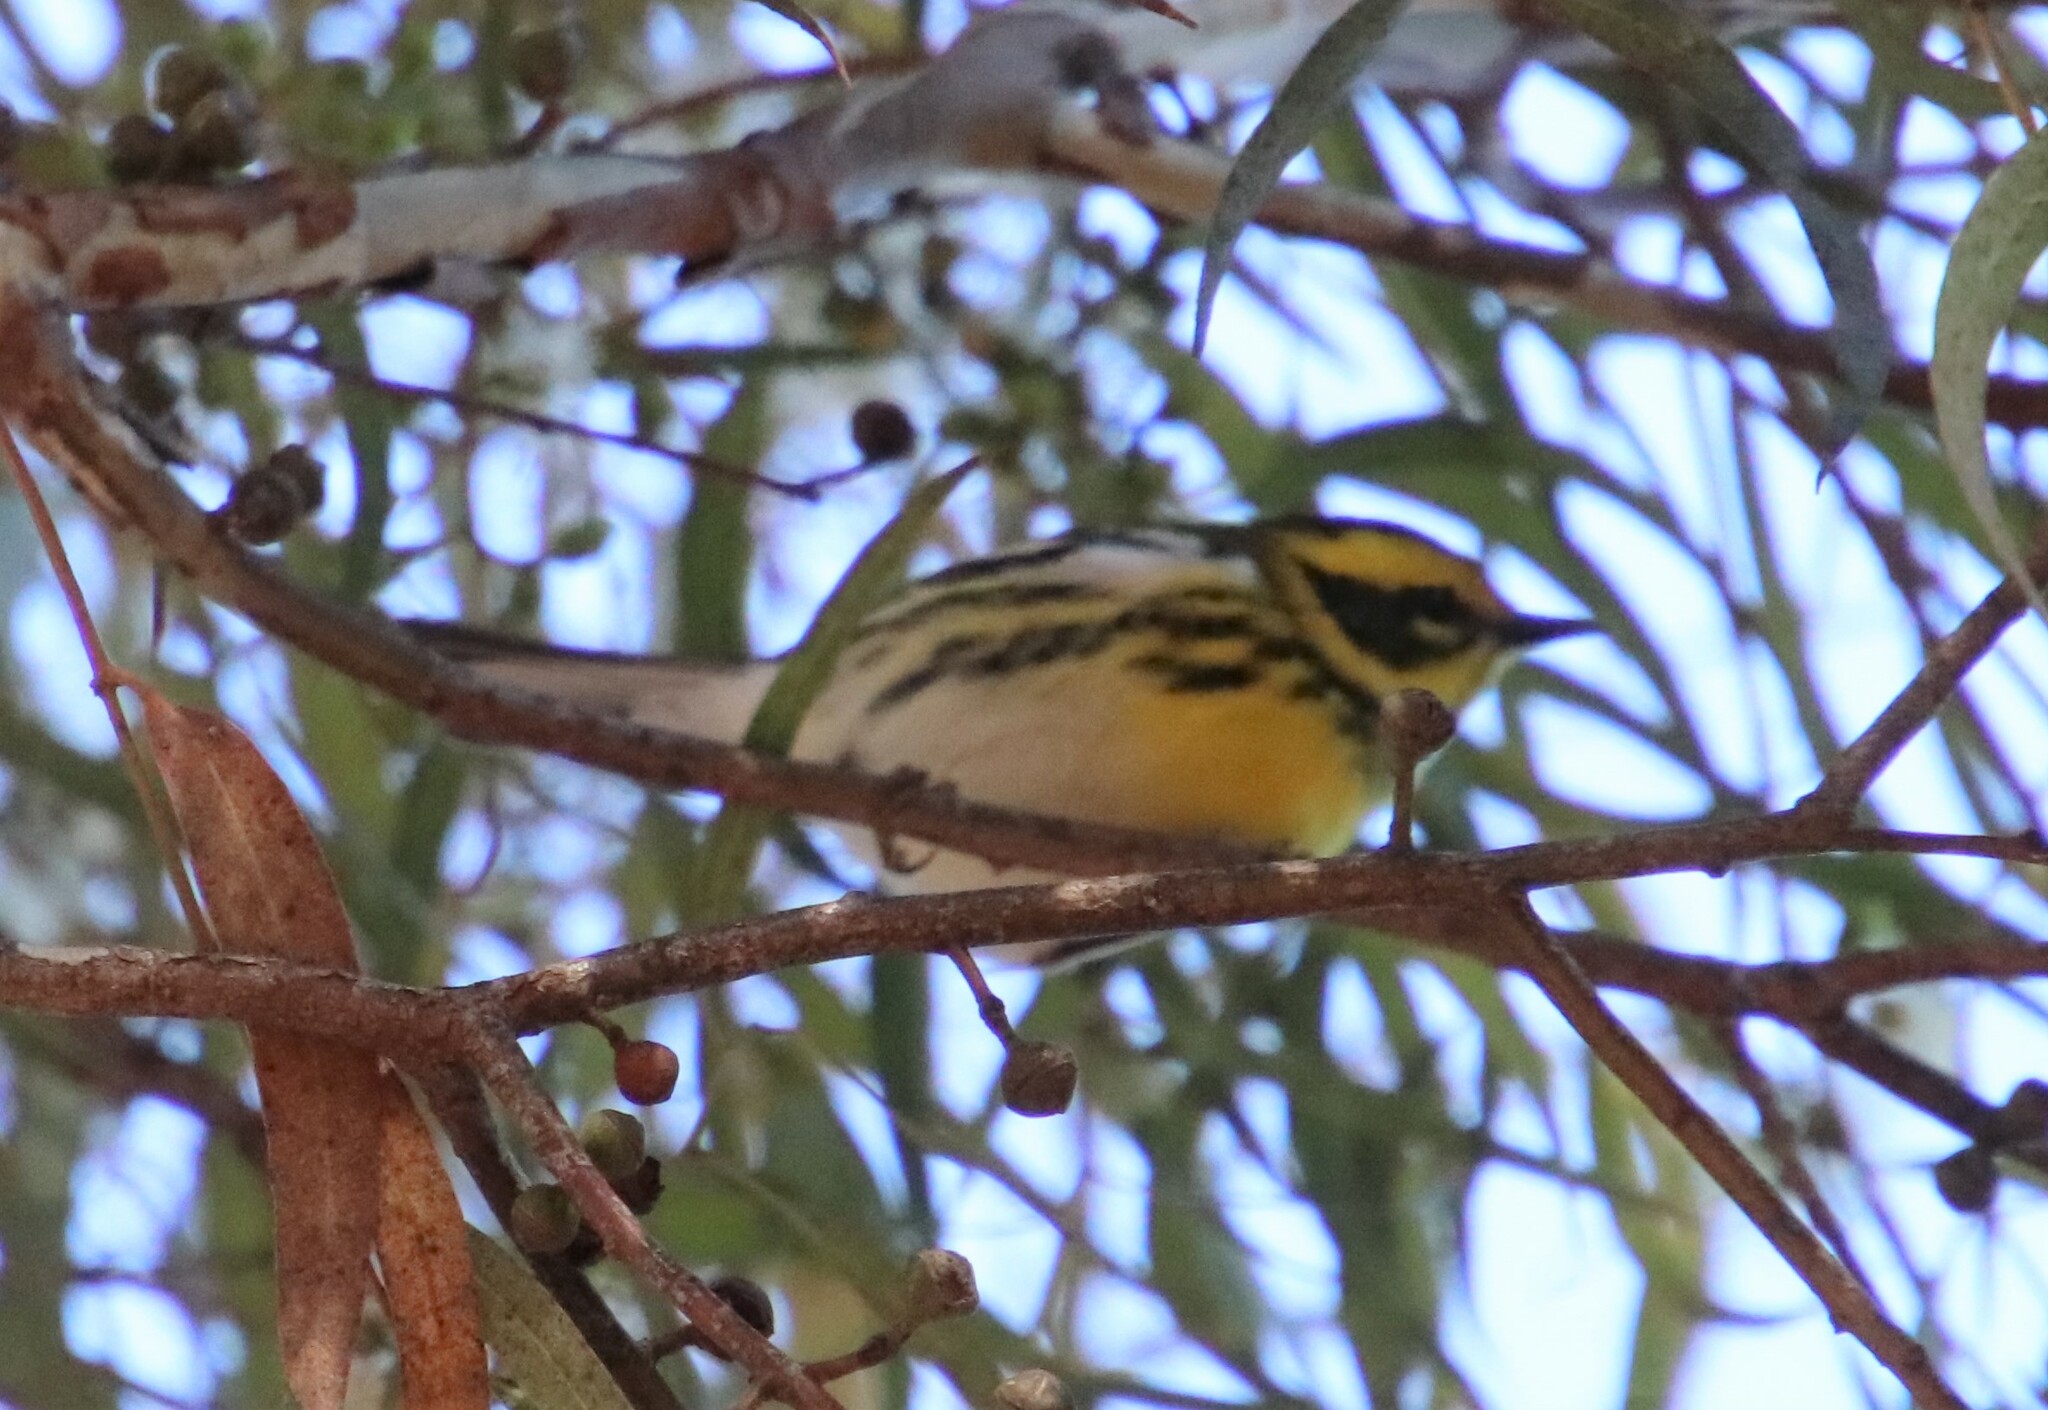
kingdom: Animalia
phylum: Chordata
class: Aves
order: Passeriformes
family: Parulidae
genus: Setophaga
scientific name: Setophaga townsendi
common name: Townsend's warbler
